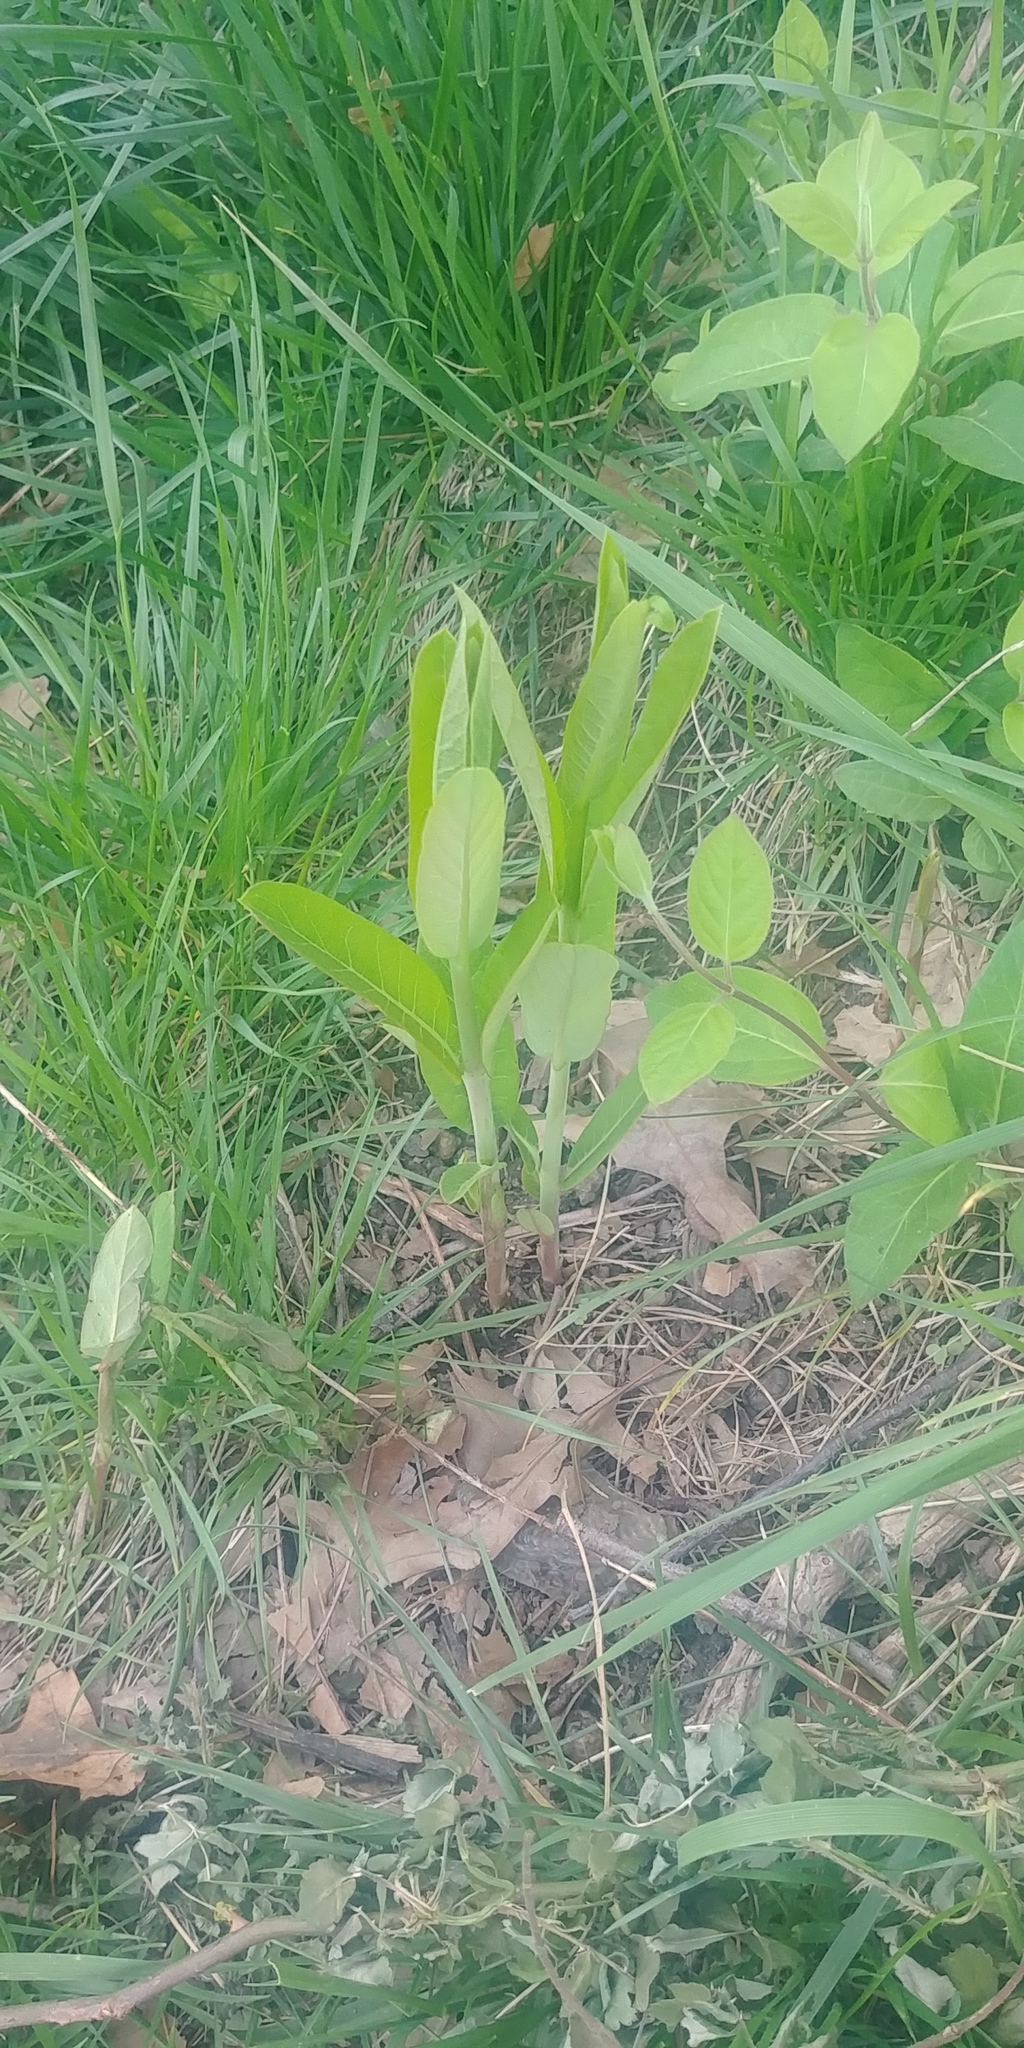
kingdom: Plantae
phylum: Tracheophyta
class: Magnoliopsida
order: Gentianales
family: Apocynaceae
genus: Asclepias
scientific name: Asclepias syriaca
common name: Common milkweed
